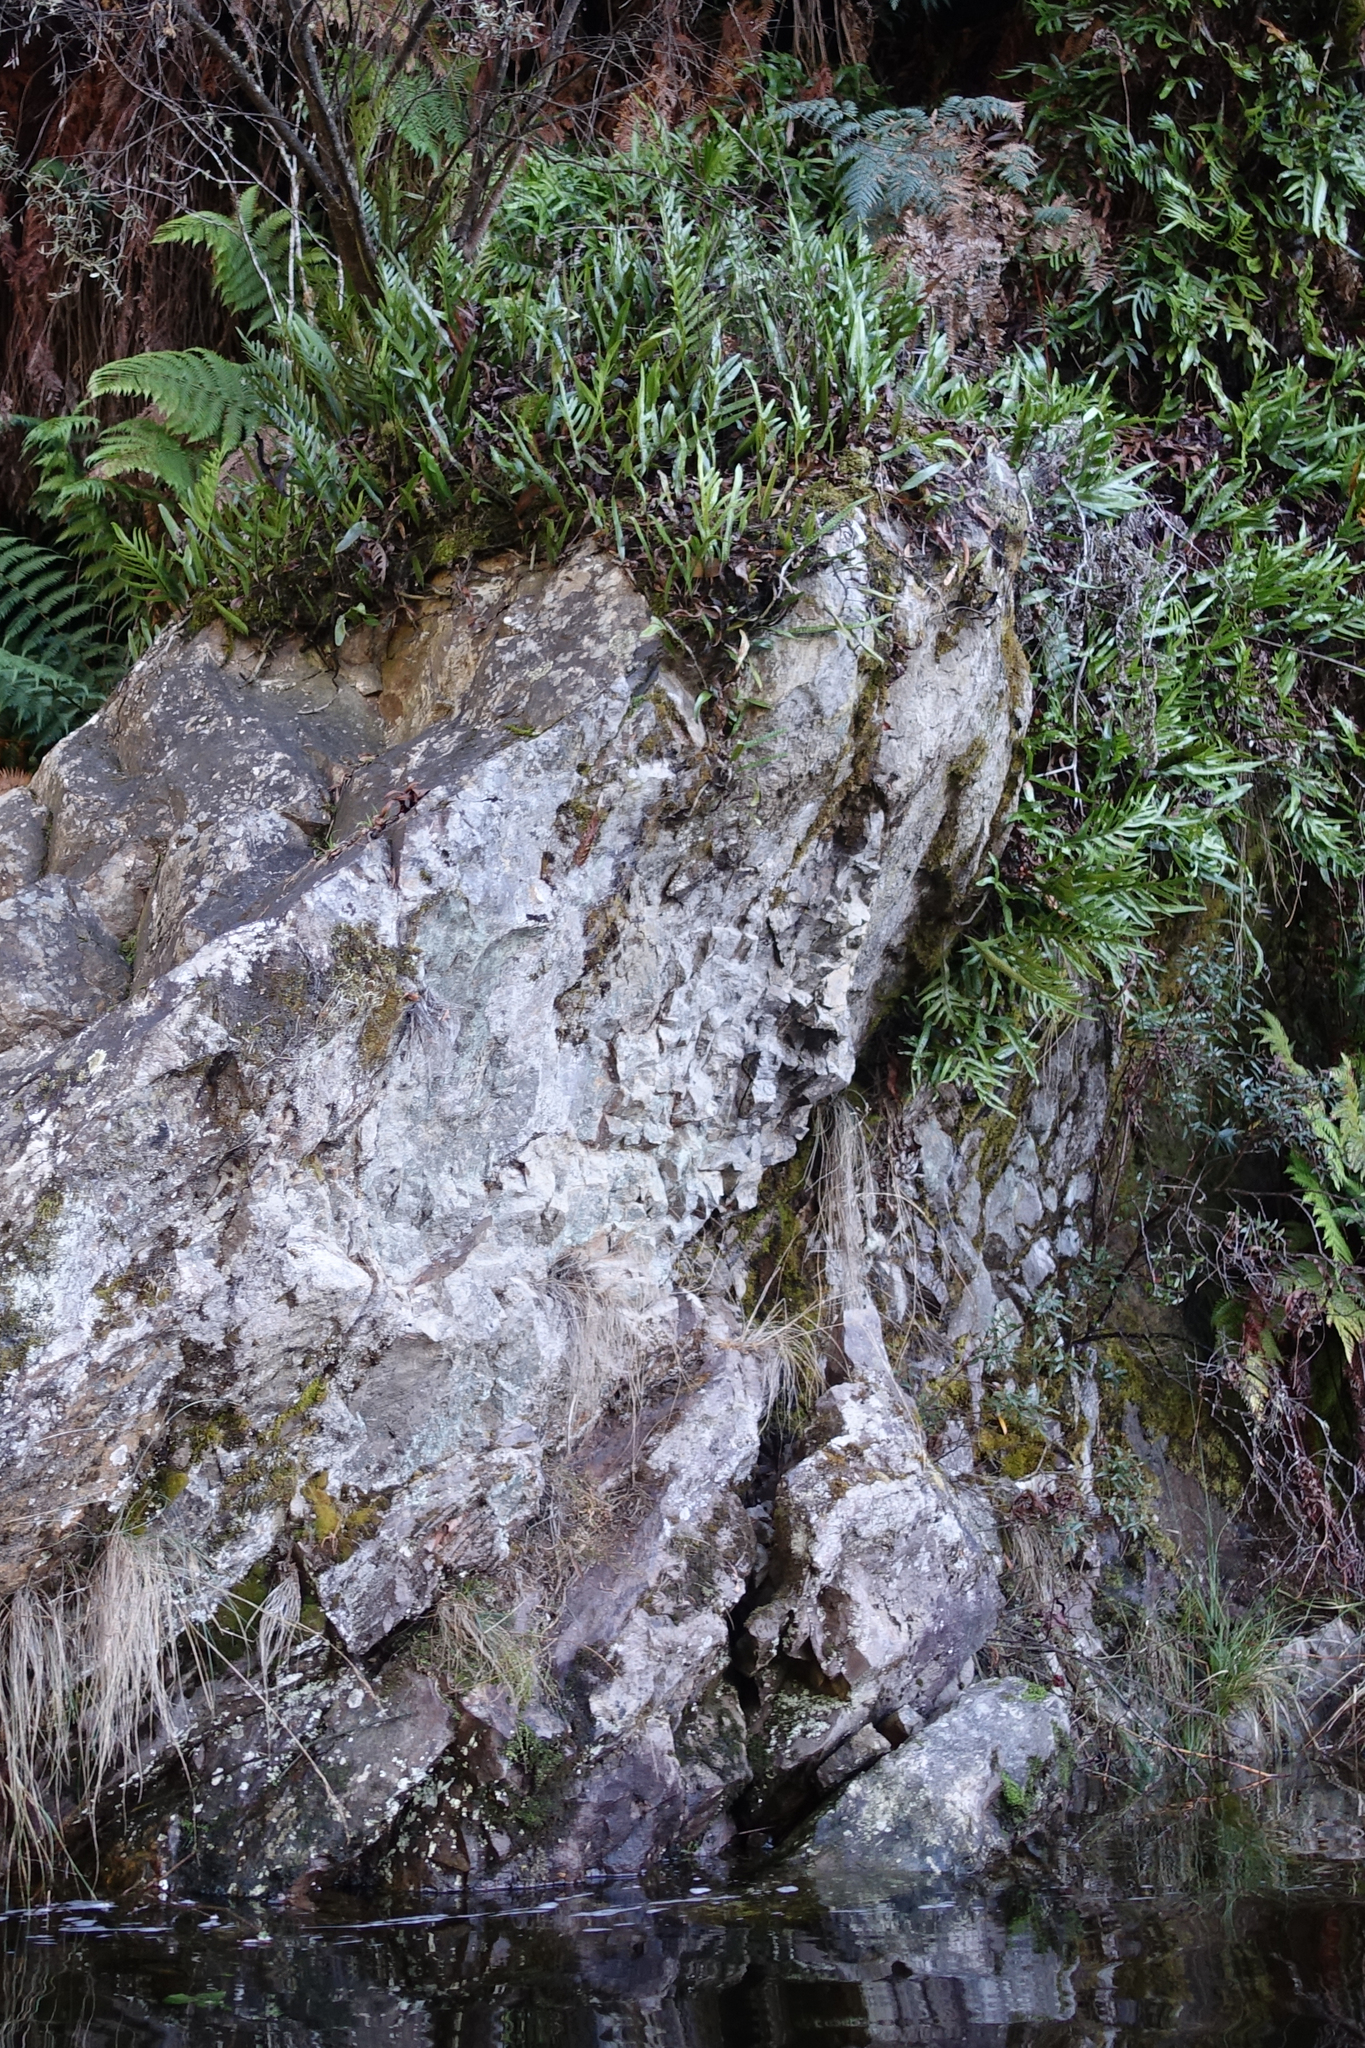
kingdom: Plantae
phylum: Tracheophyta
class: Polypodiopsida
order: Polypodiales
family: Polypodiaceae
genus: Lecanopteris
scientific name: Lecanopteris pustulata
